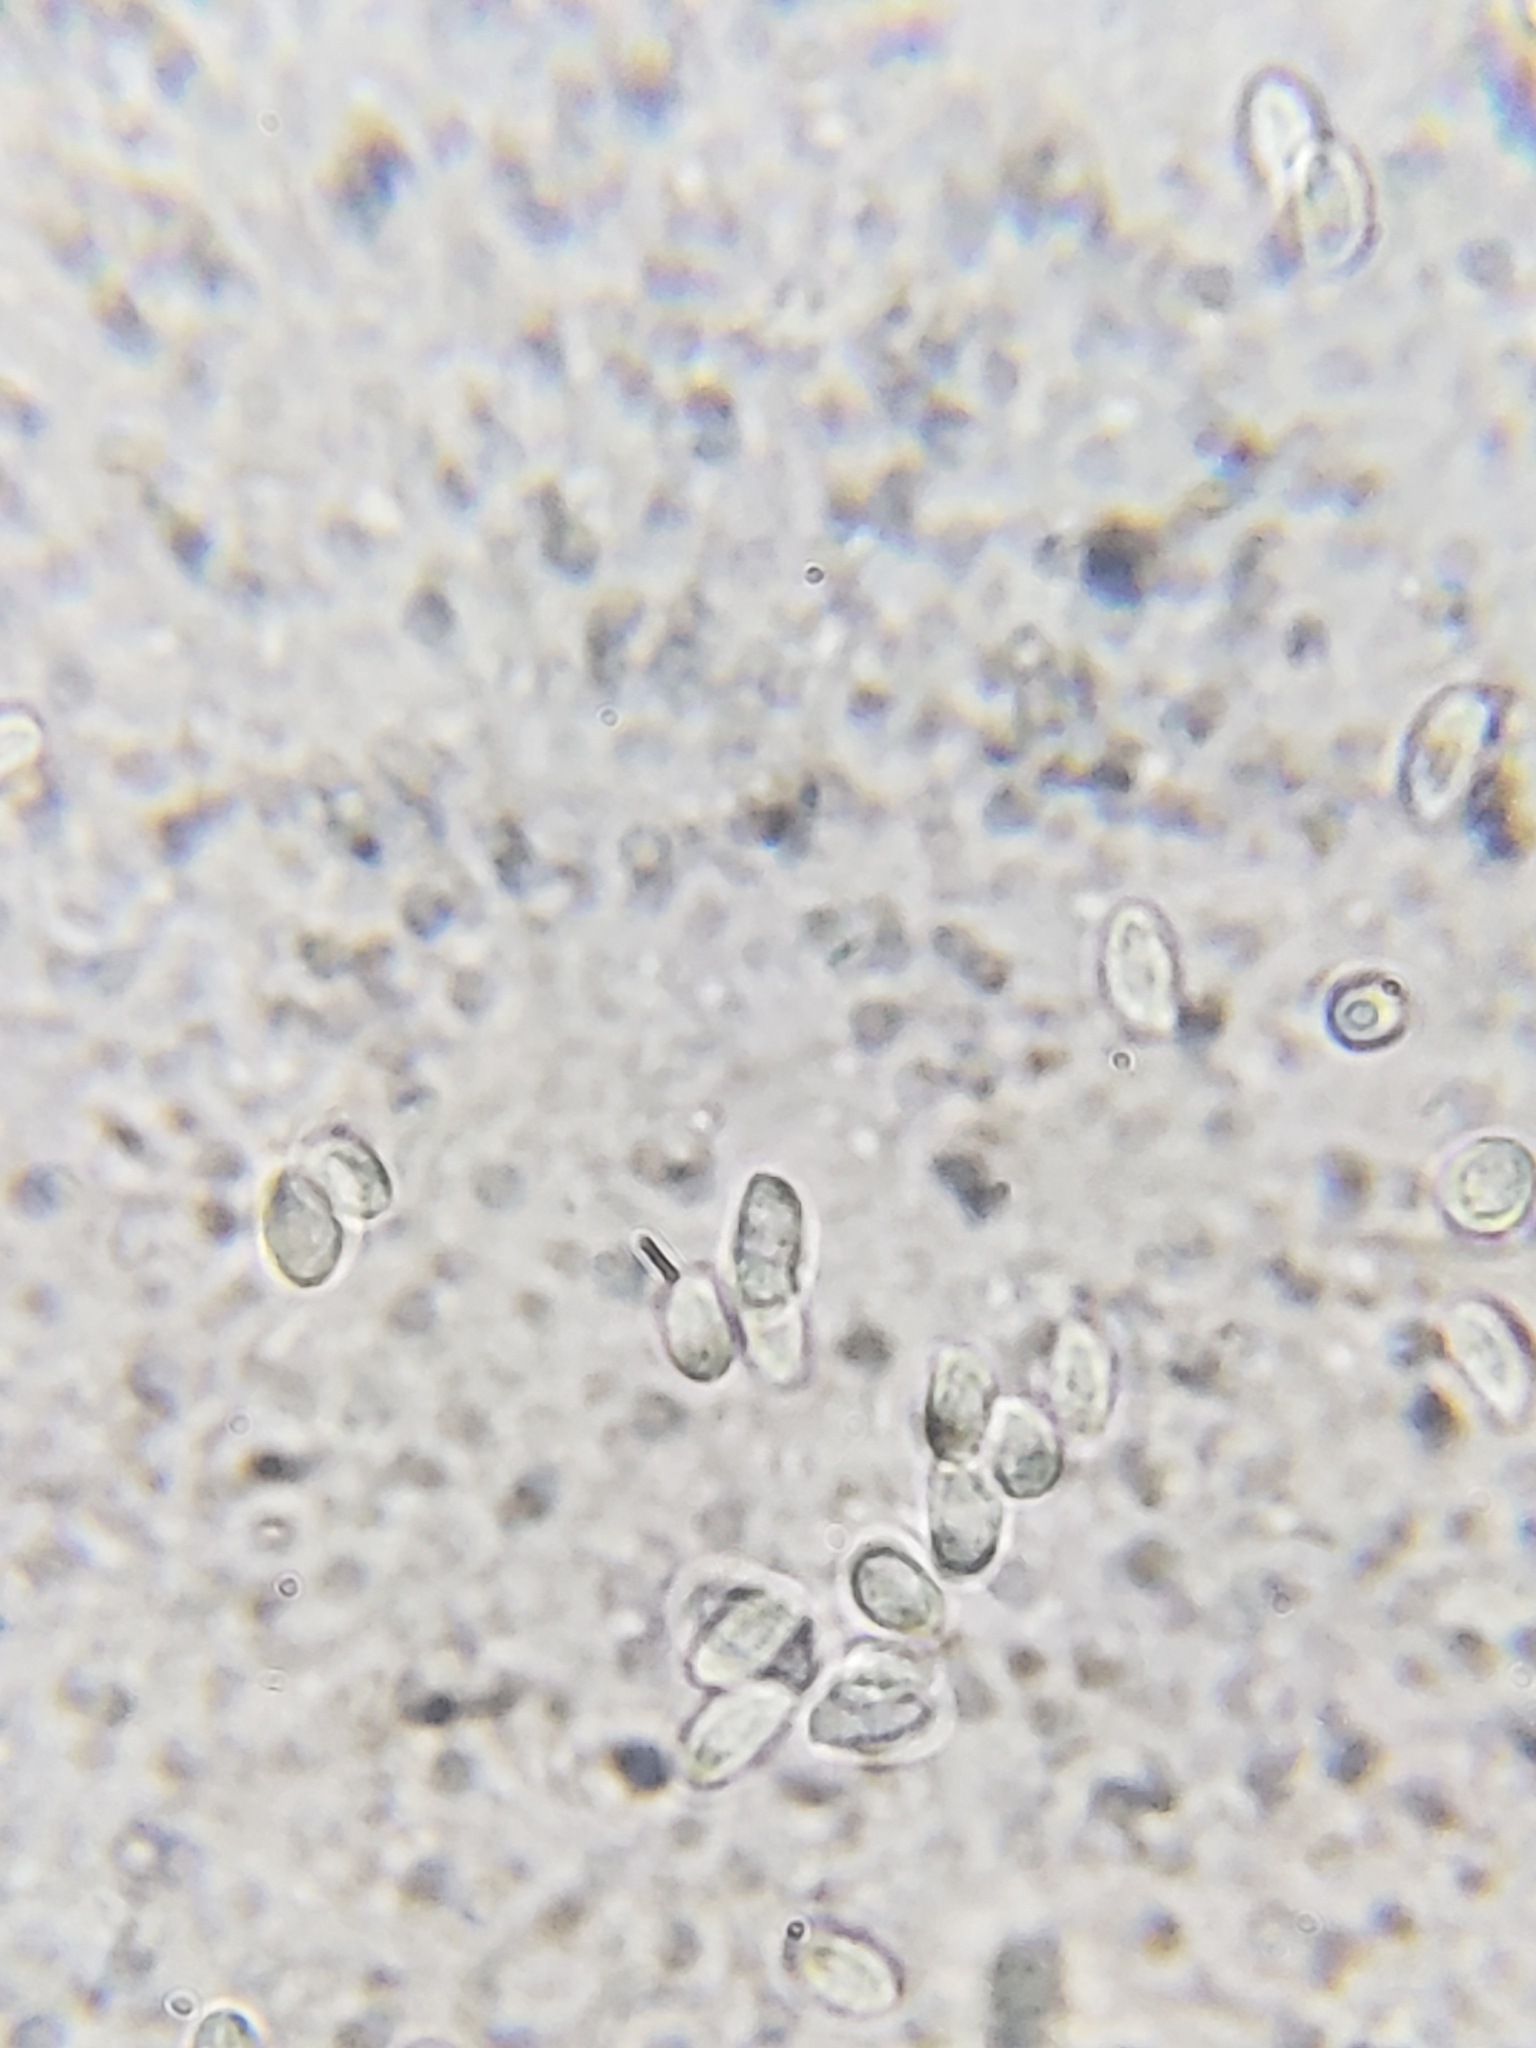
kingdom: Fungi
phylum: Basidiomycota
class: Agaricomycetes
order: Agaricales
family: Physalacriaceae
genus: Flammulina
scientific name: Flammulina velutipes
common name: Velvet shank
